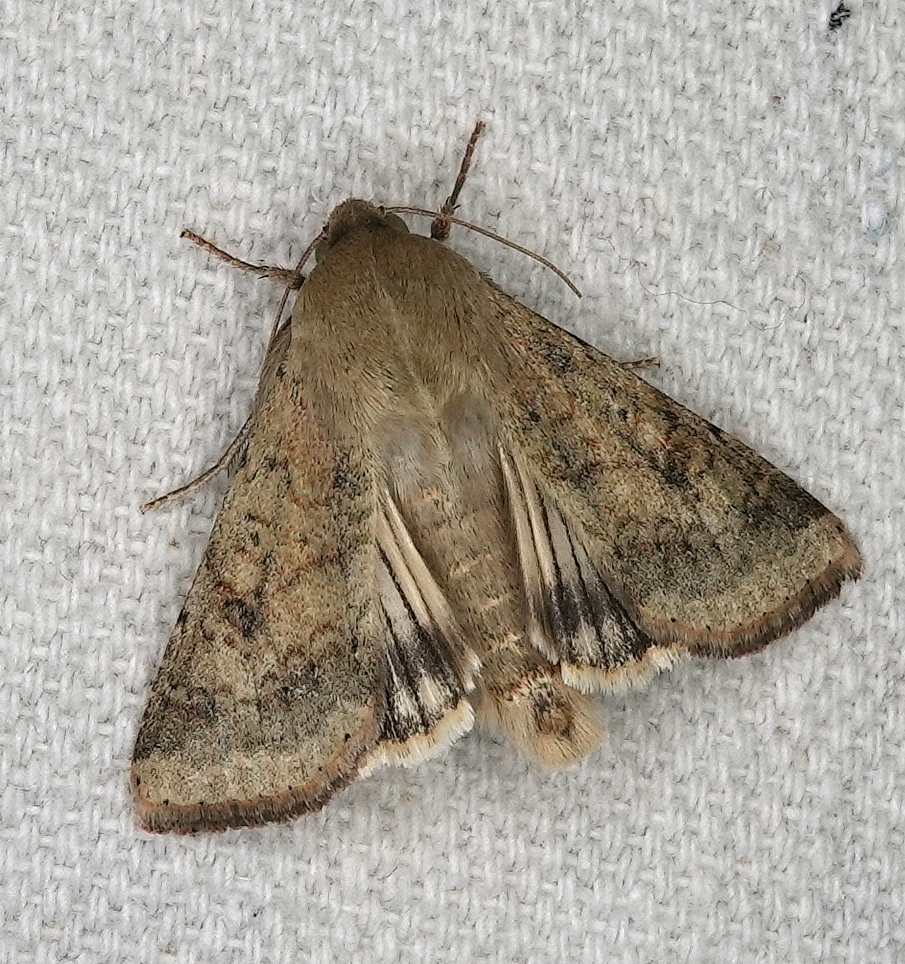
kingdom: Animalia
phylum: Arthropoda
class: Insecta
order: Lepidoptera
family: Noctuidae
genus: Helicoverpa
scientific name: Helicoverpa zea
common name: Bollworm
